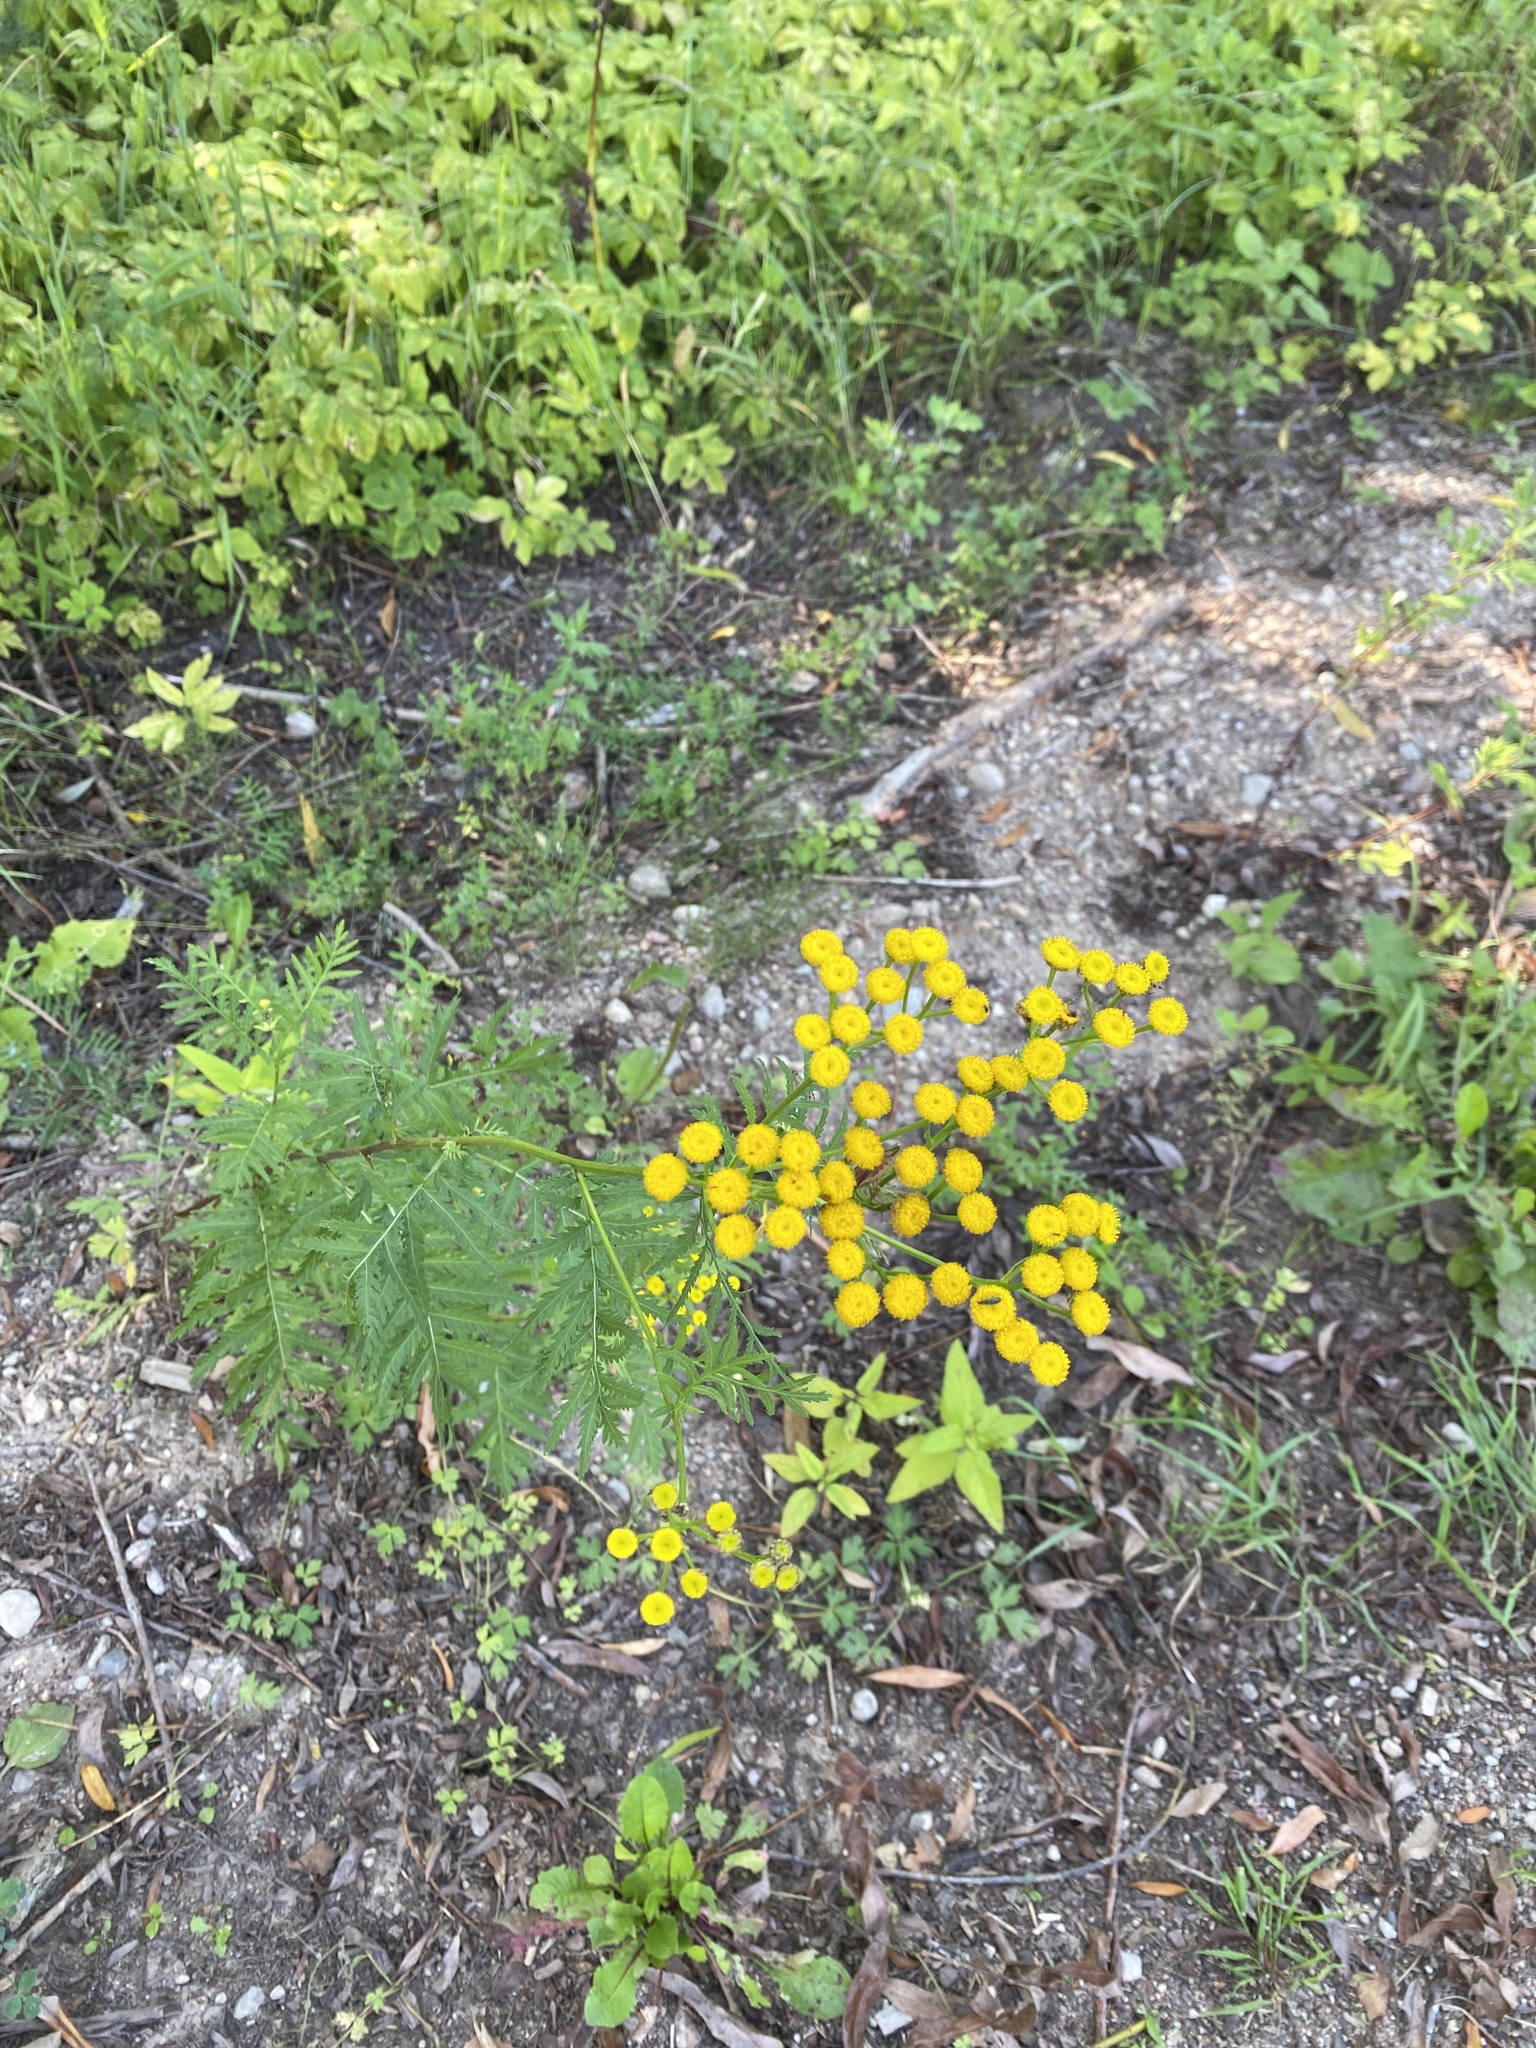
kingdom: Plantae
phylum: Tracheophyta
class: Magnoliopsida
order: Asterales
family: Asteraceae
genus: Tanacetum
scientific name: Tanacetum vulgare
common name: Common tansy
